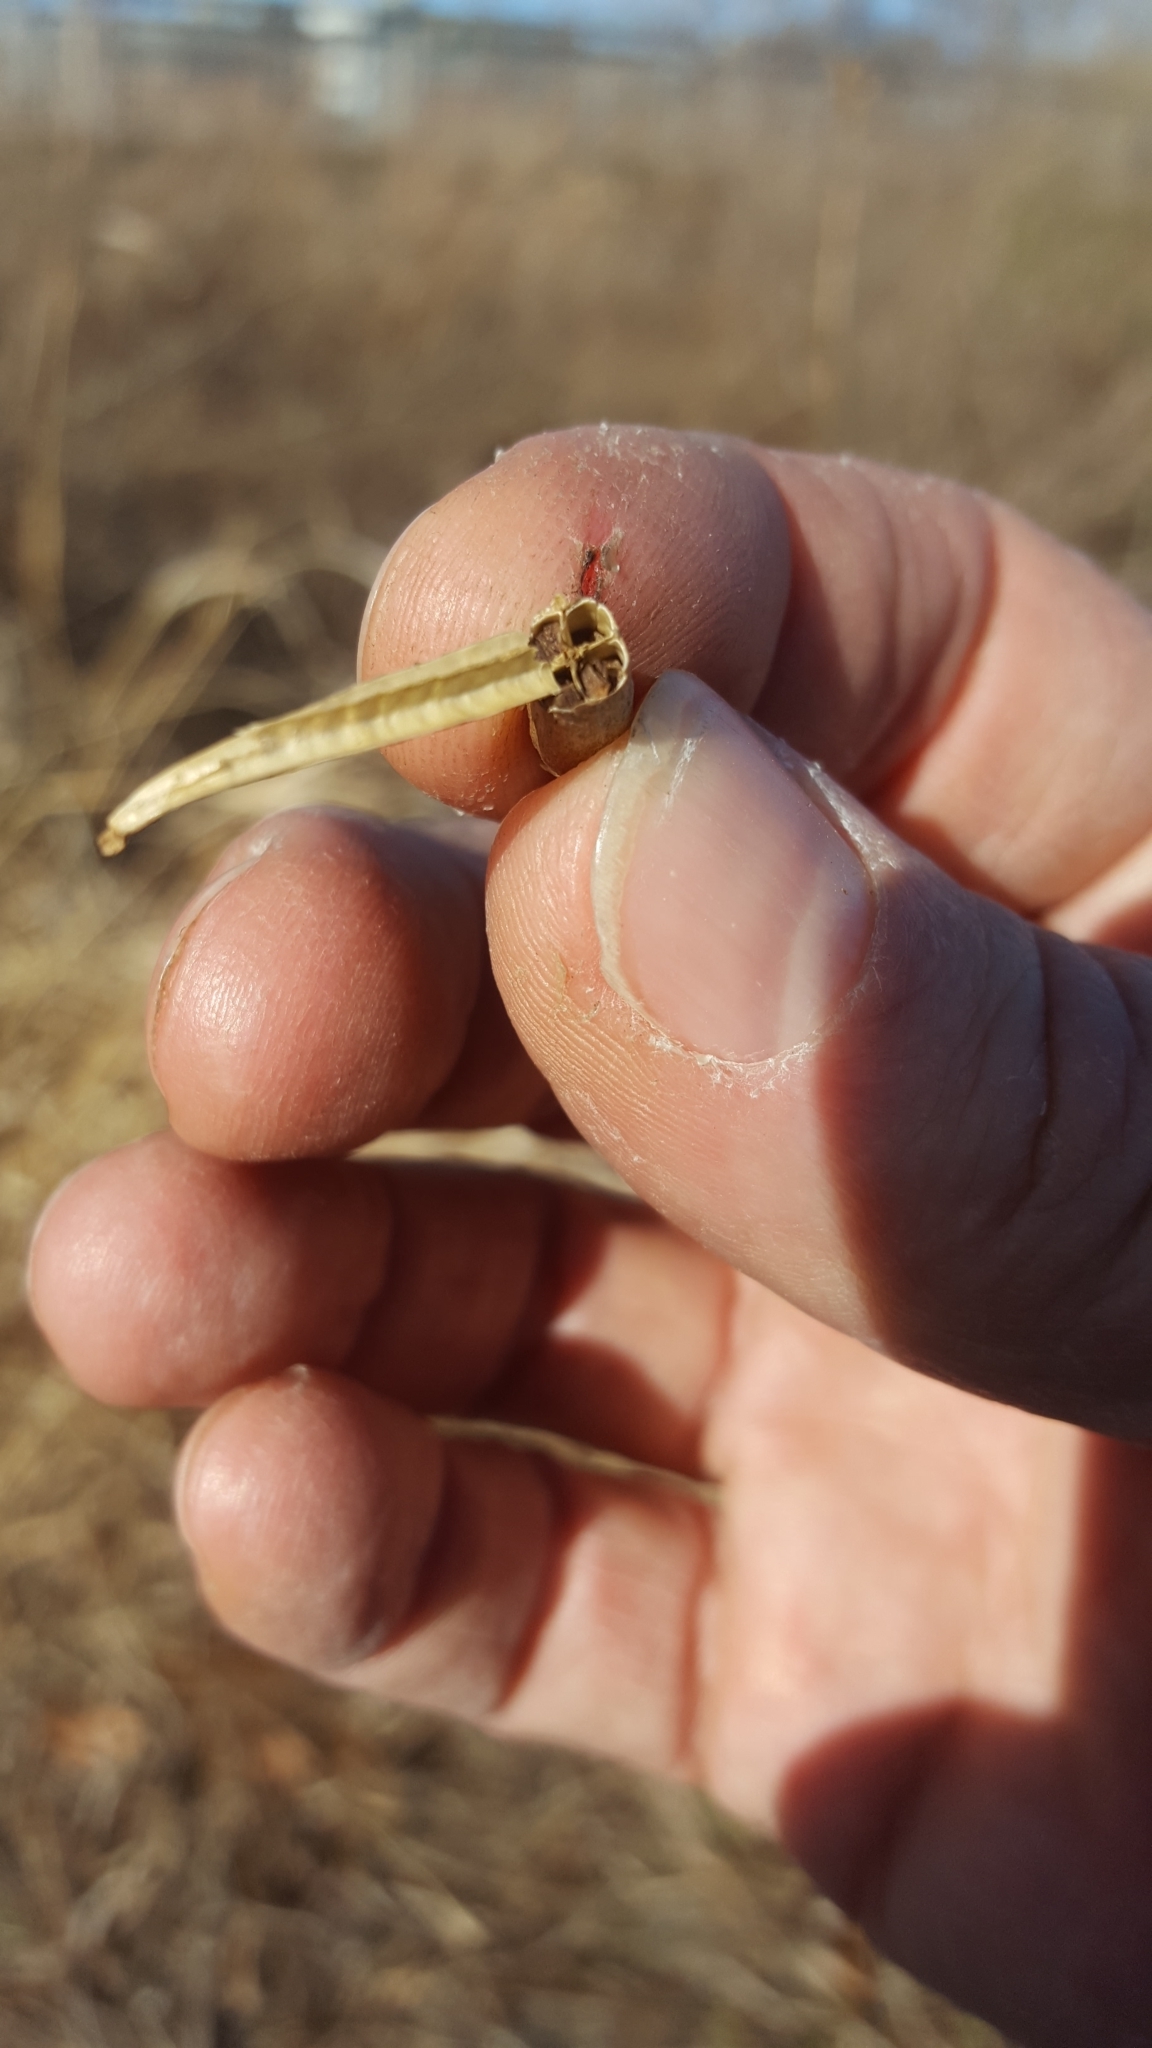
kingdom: Plantae
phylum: Tracheophyta
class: Magnoliopsida
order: Myrtales
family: Onagraceae
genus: Oenothera
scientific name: Oenothera biennis
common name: Common evening-primrose
